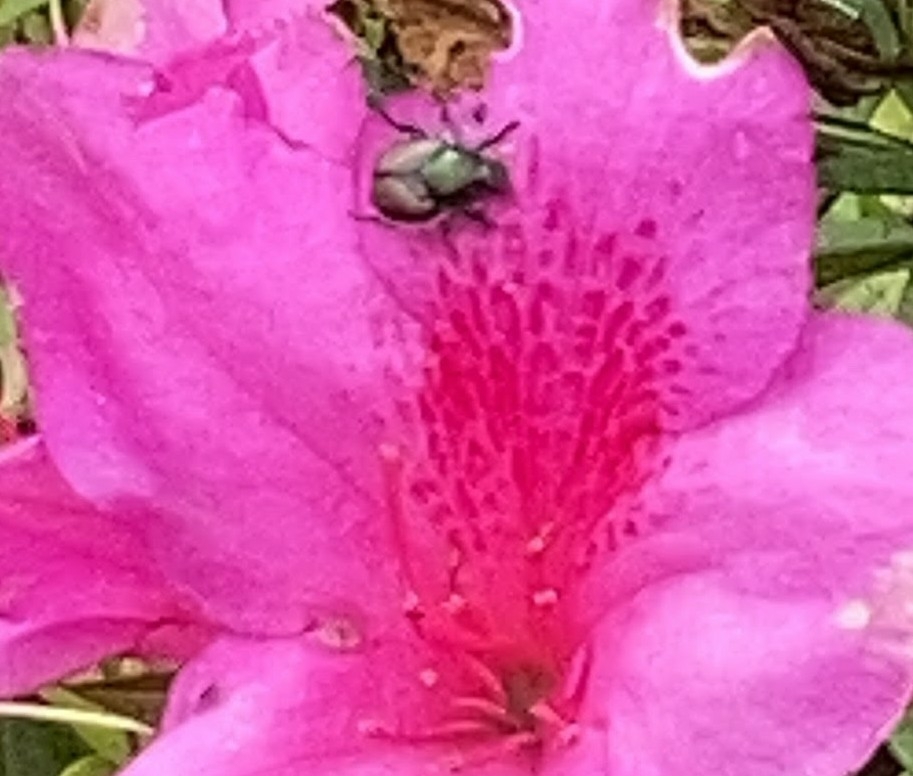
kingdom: Animalia
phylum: Arthropoda
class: Insecta
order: Coleoptera
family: Scarabaeidae
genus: Popillia
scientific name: Popillia japonica
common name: Japanese beetle
